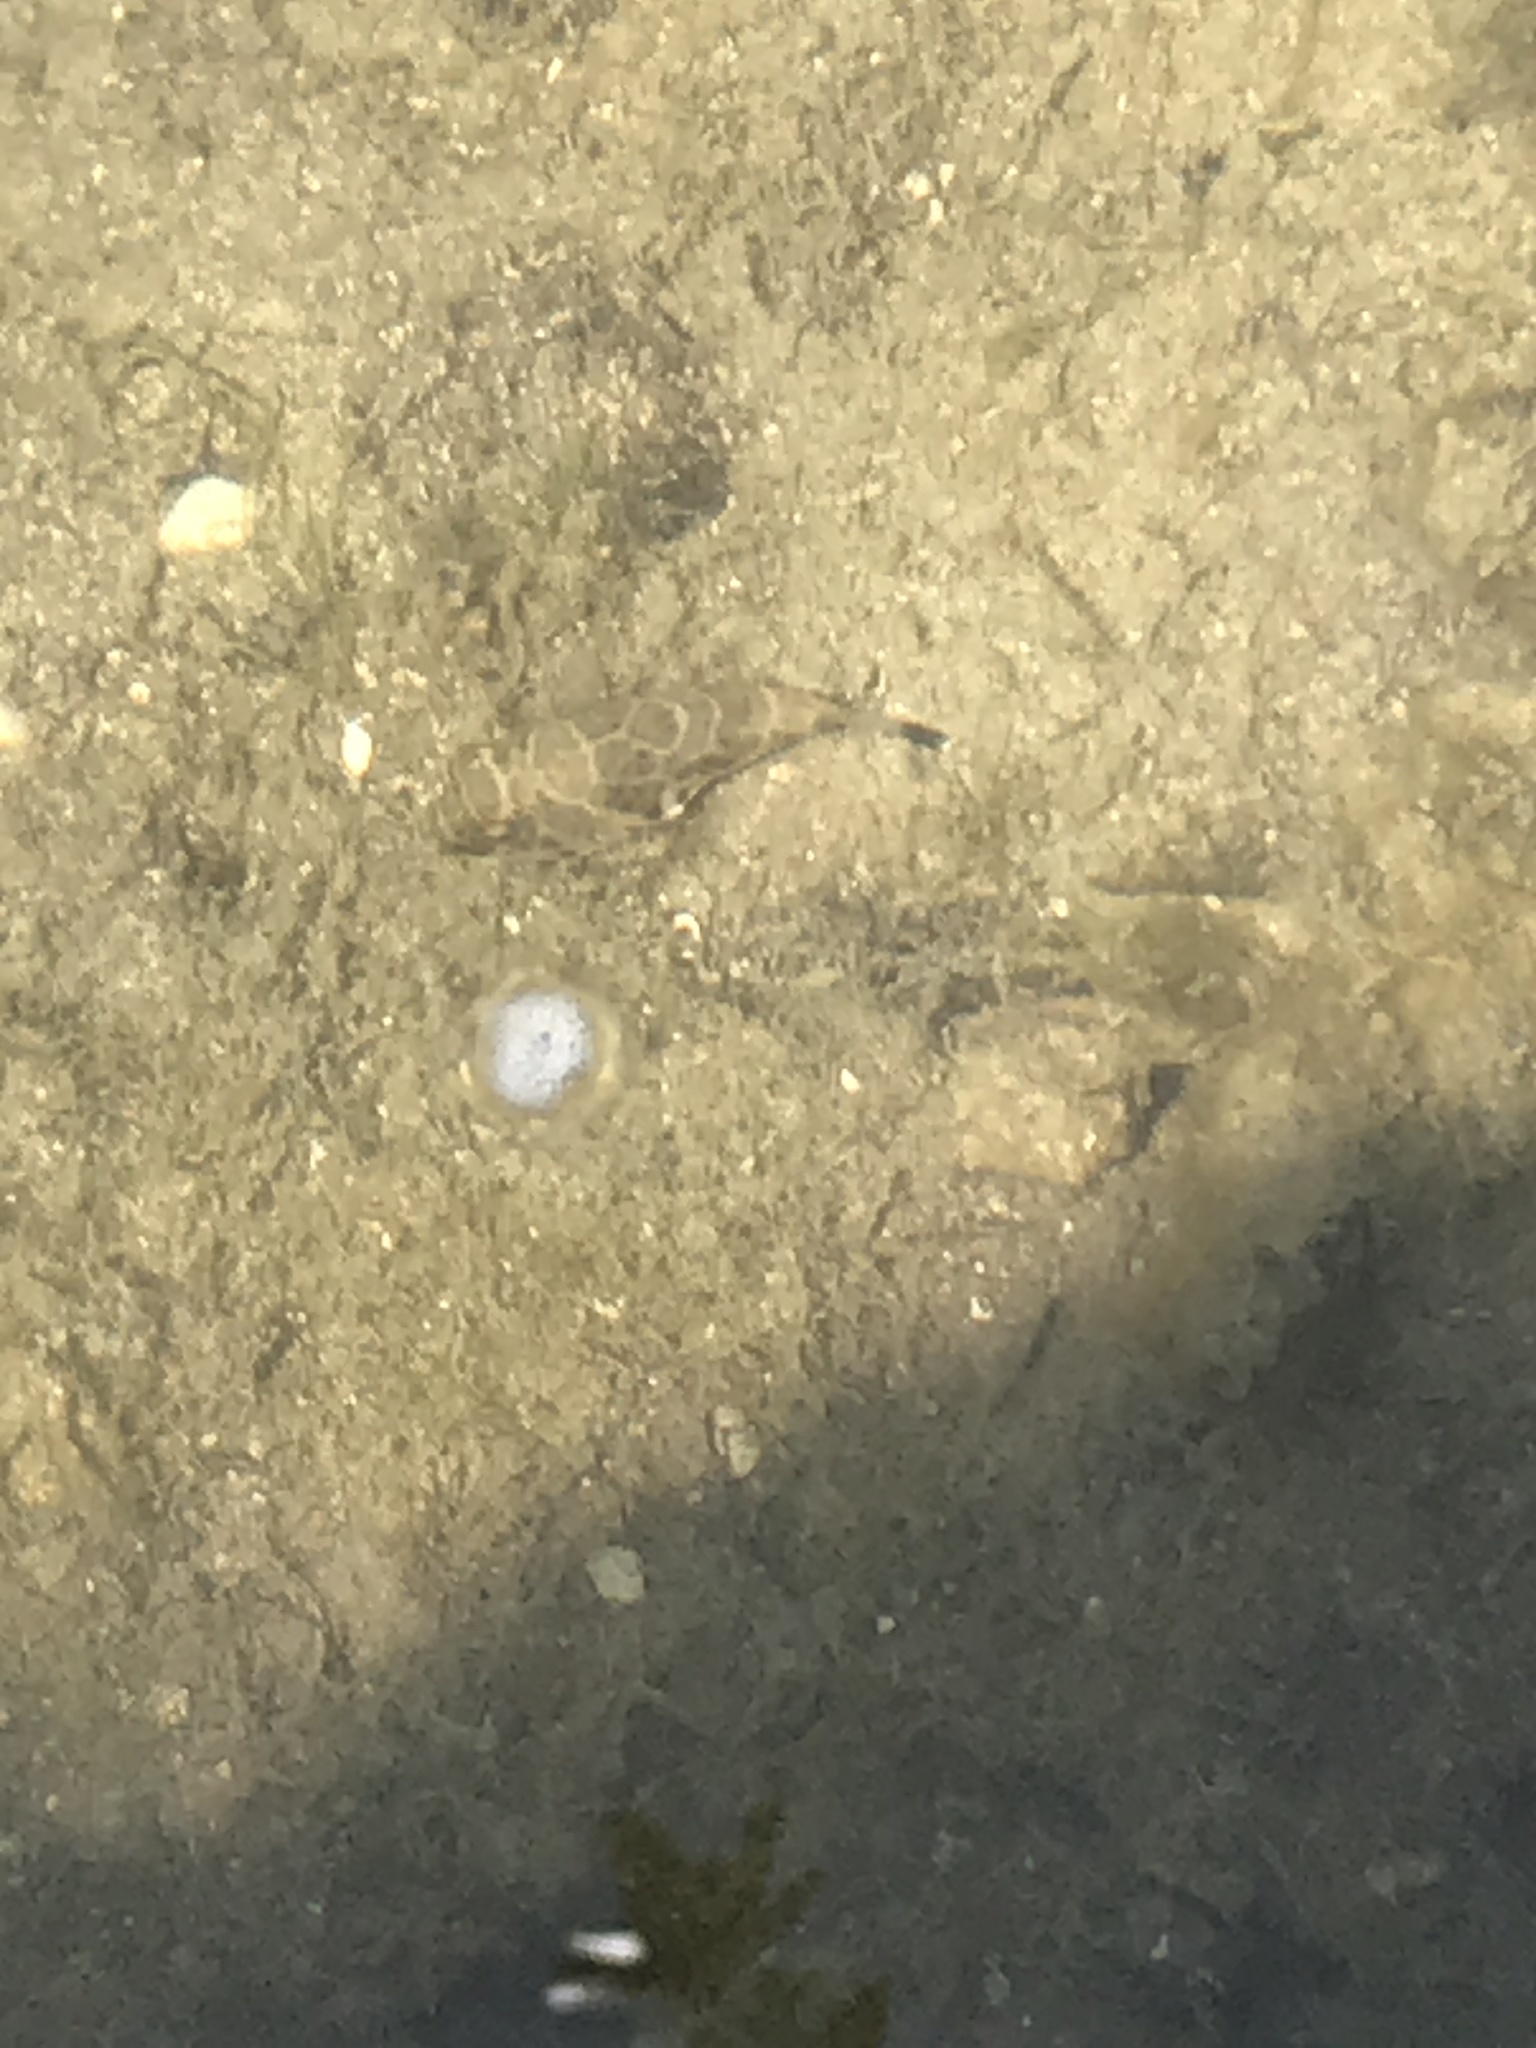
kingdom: Animalia
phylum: Chordata
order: Tetraodontiformes
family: Tetraodontidae
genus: Sphoeroides
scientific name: Sphoeroides testudineus
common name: Checkered puffer
